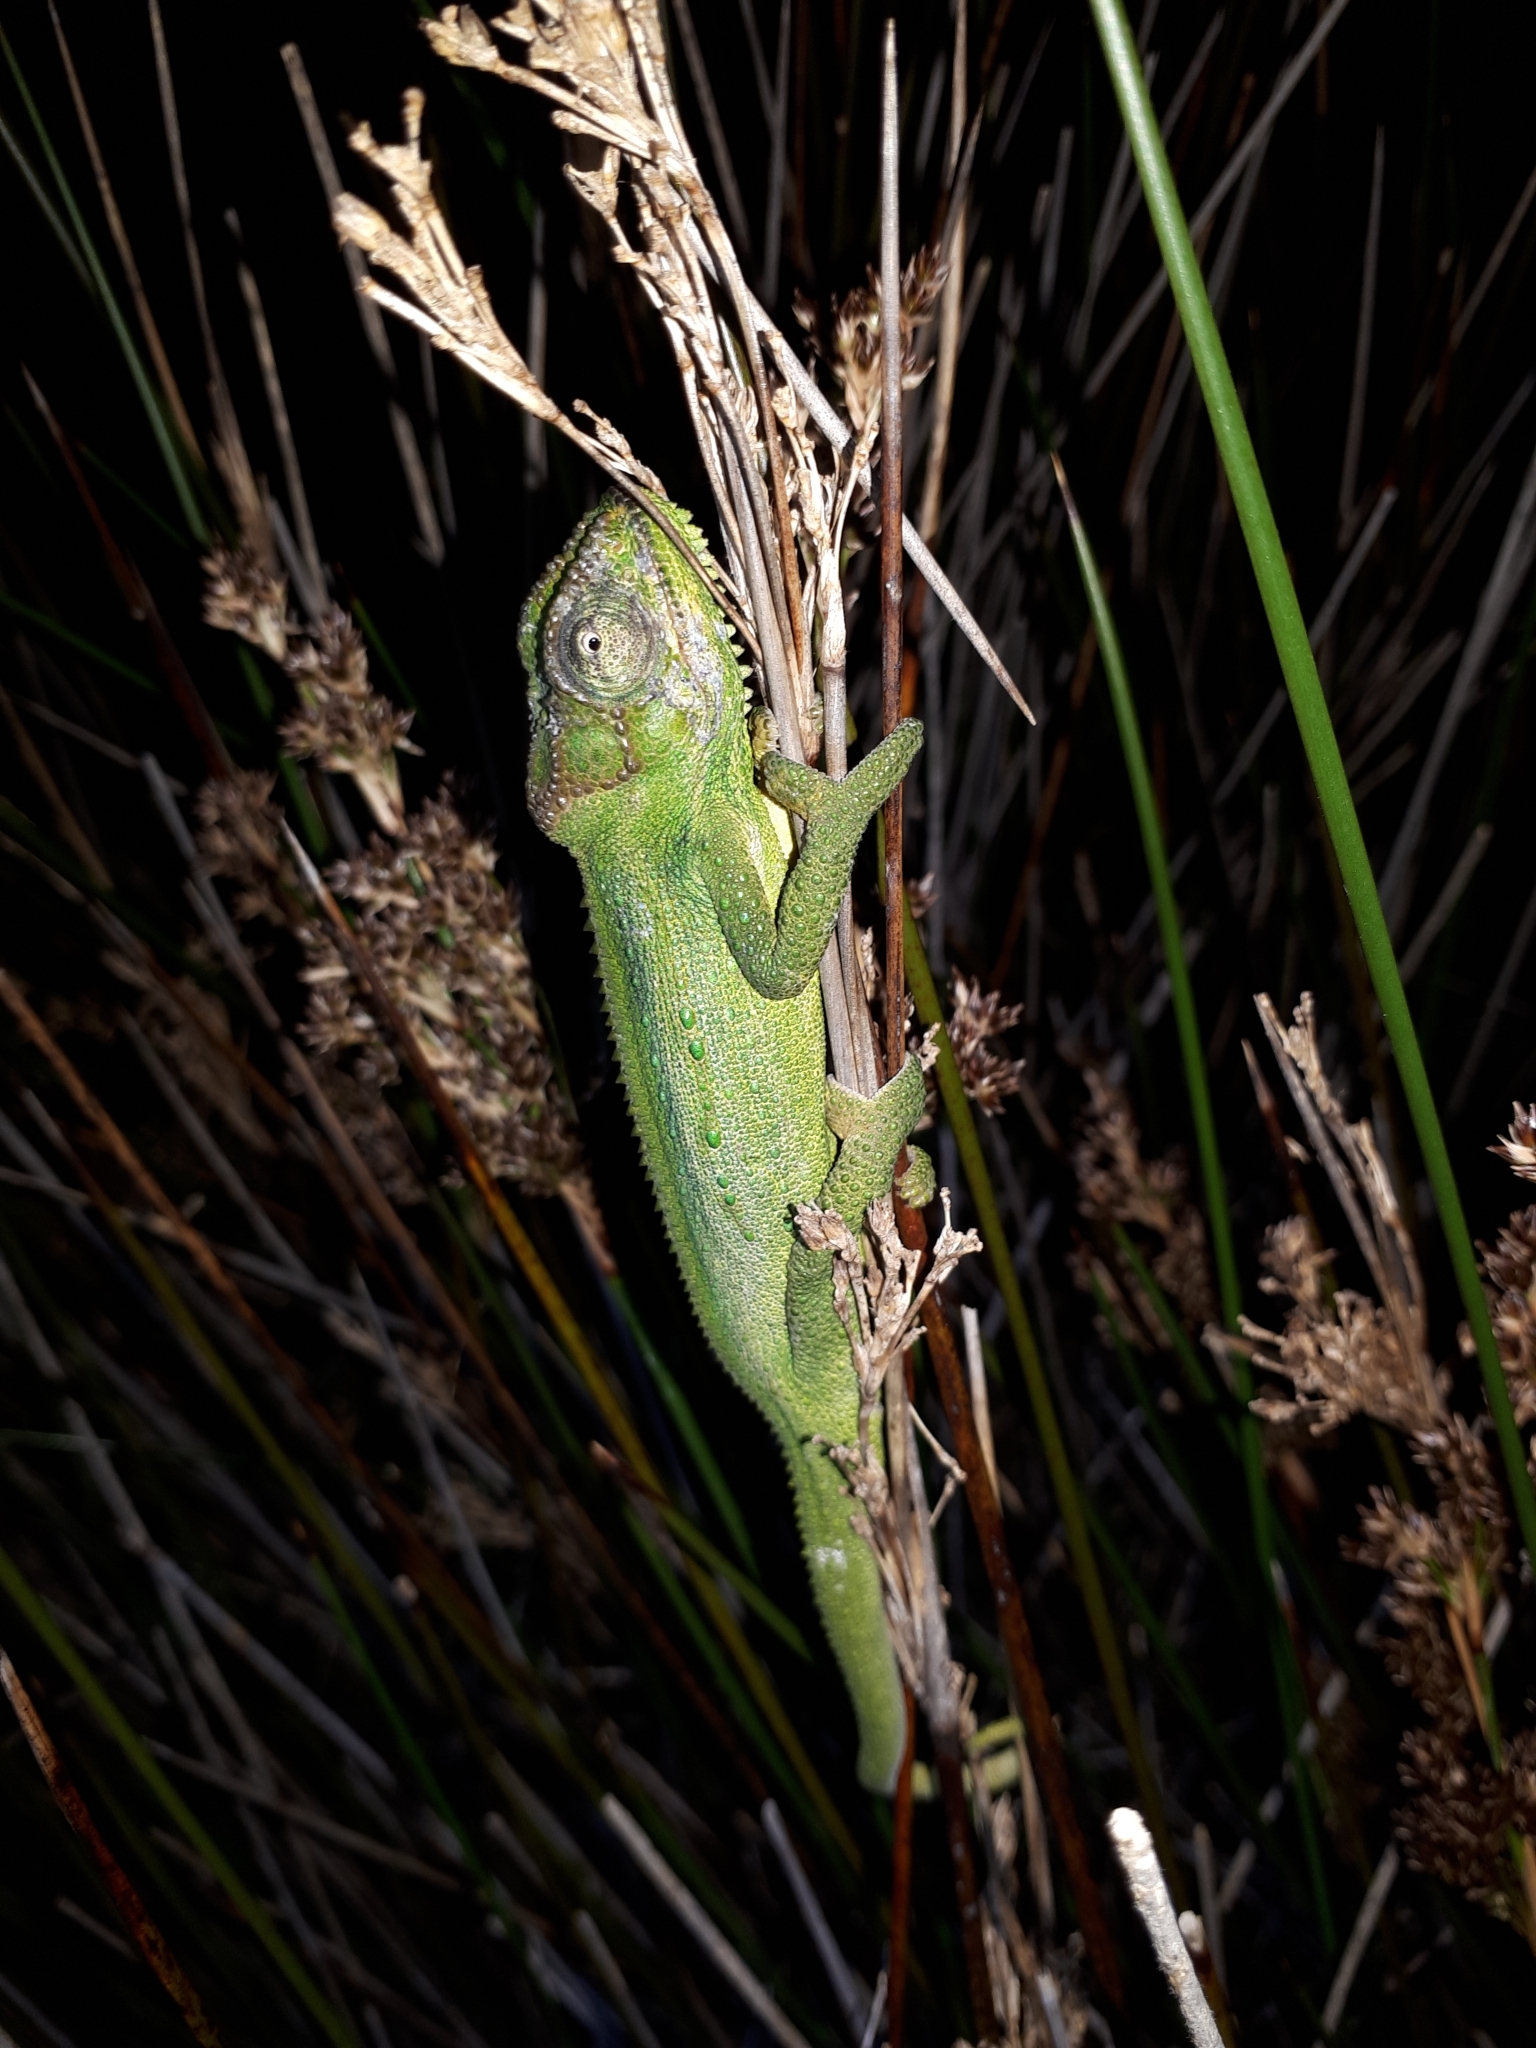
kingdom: Animalia
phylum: Chordata
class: Squamata
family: Chamaeleonidae
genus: Bradypodion
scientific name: Bradypodion pumilum
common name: Cape dwarf chameleon
